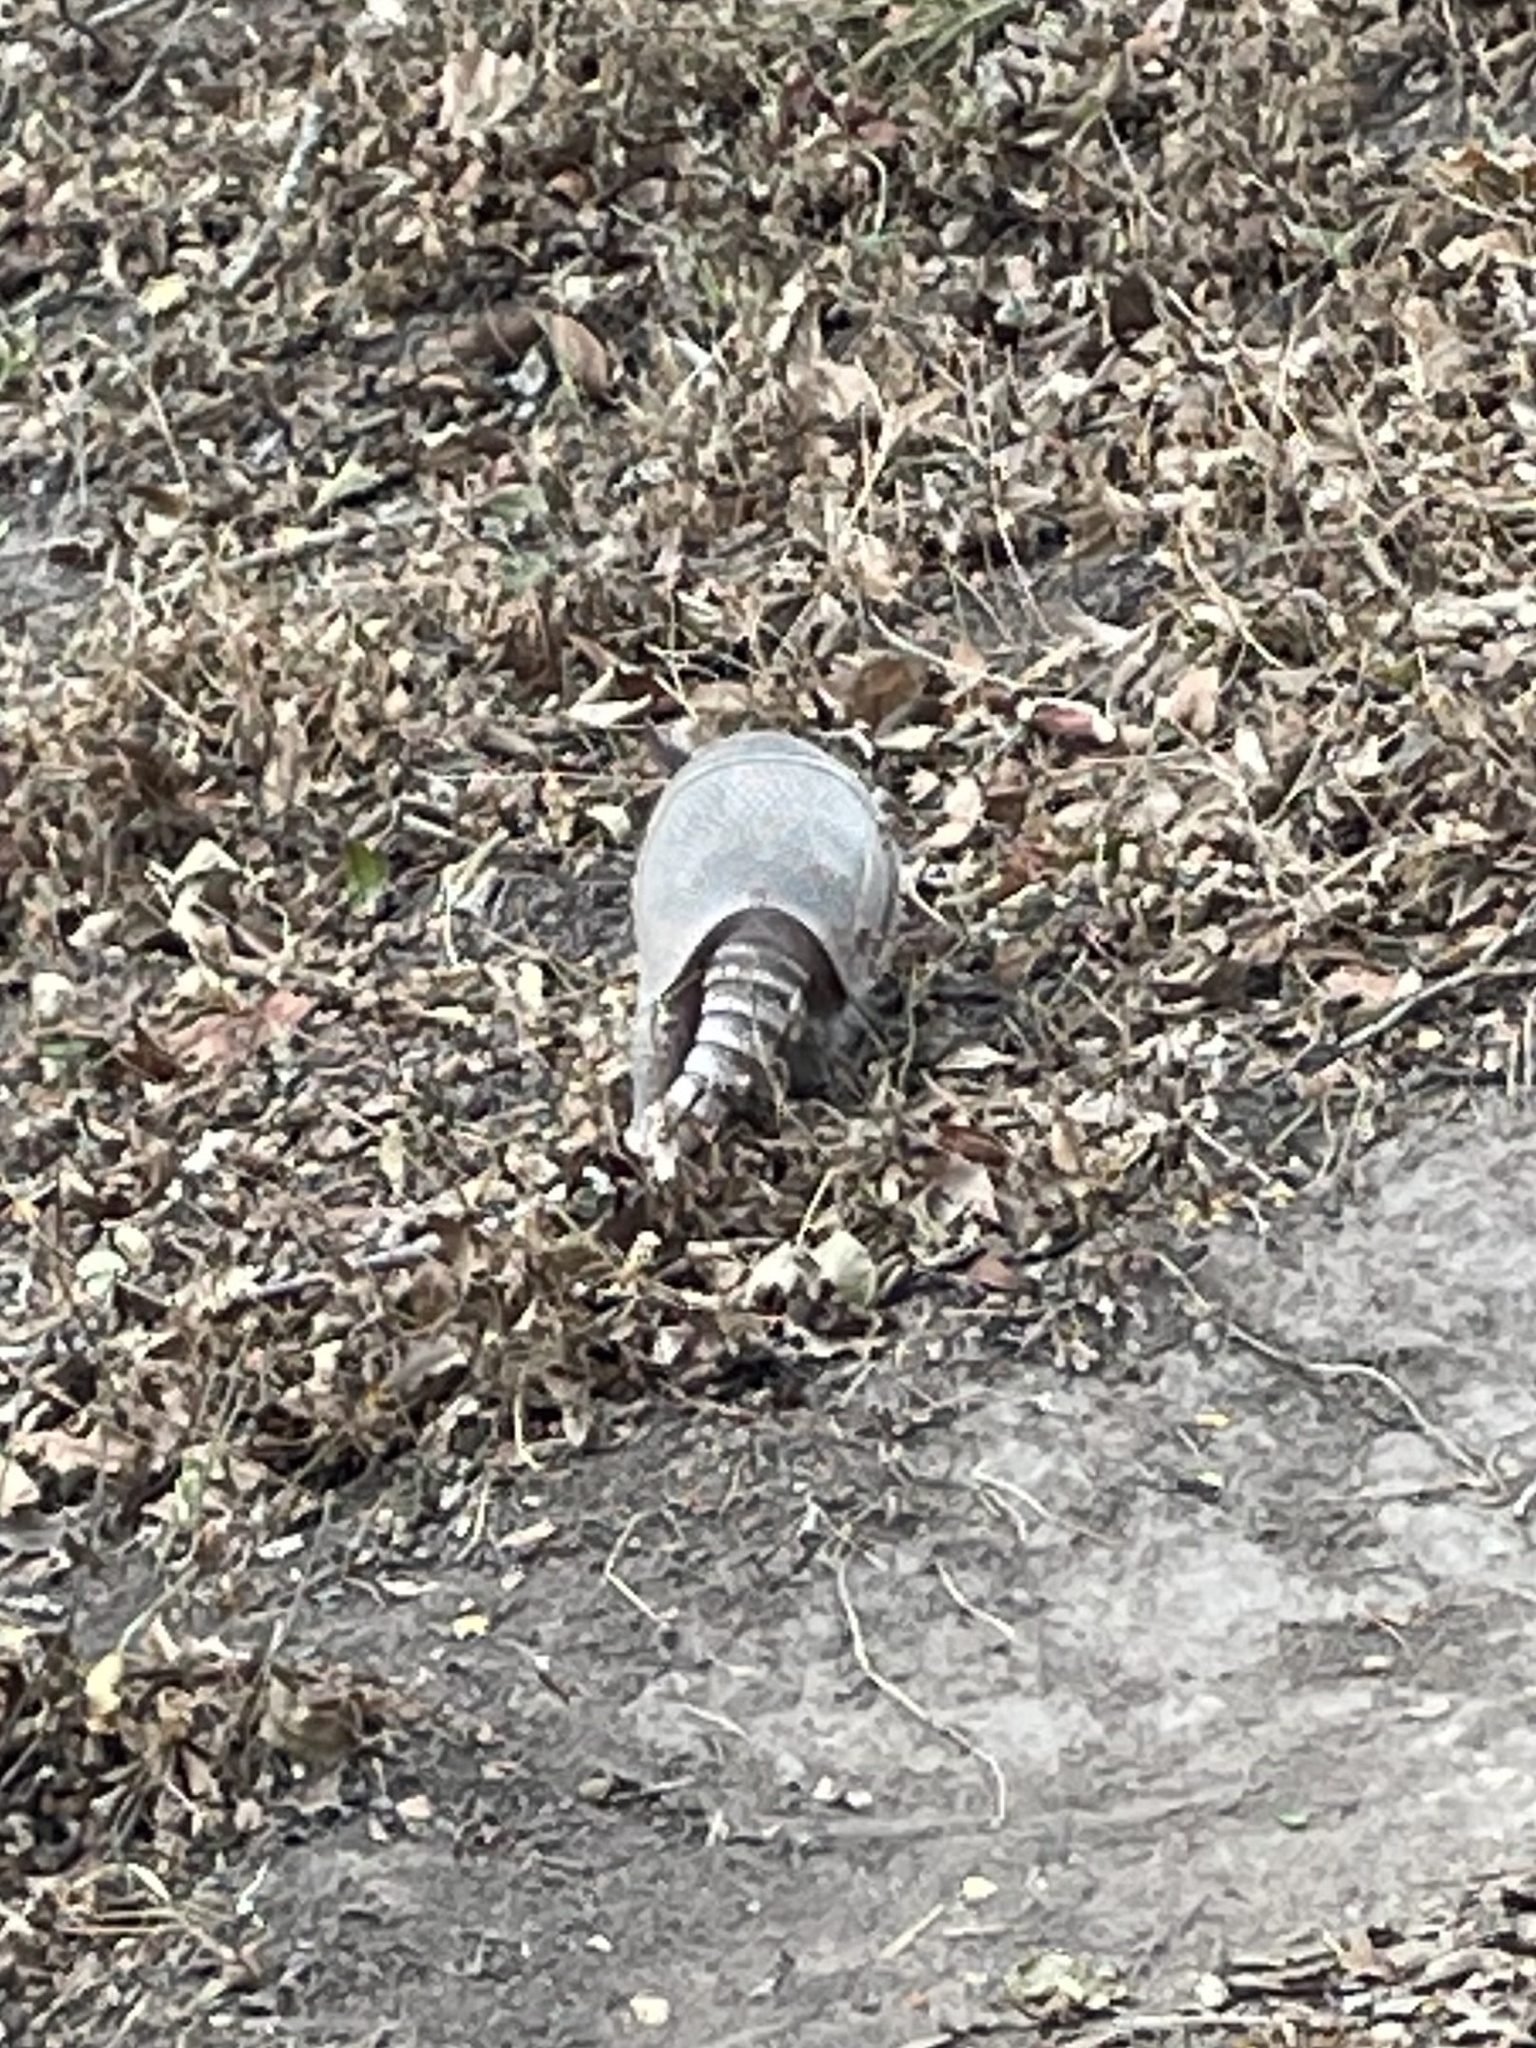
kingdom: Animalia
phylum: Chordata
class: Mammalia
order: Cingulata
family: Dasypodidae
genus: Dasypus
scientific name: Dasypus novemcinctus
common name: Nine-banded armadillo
